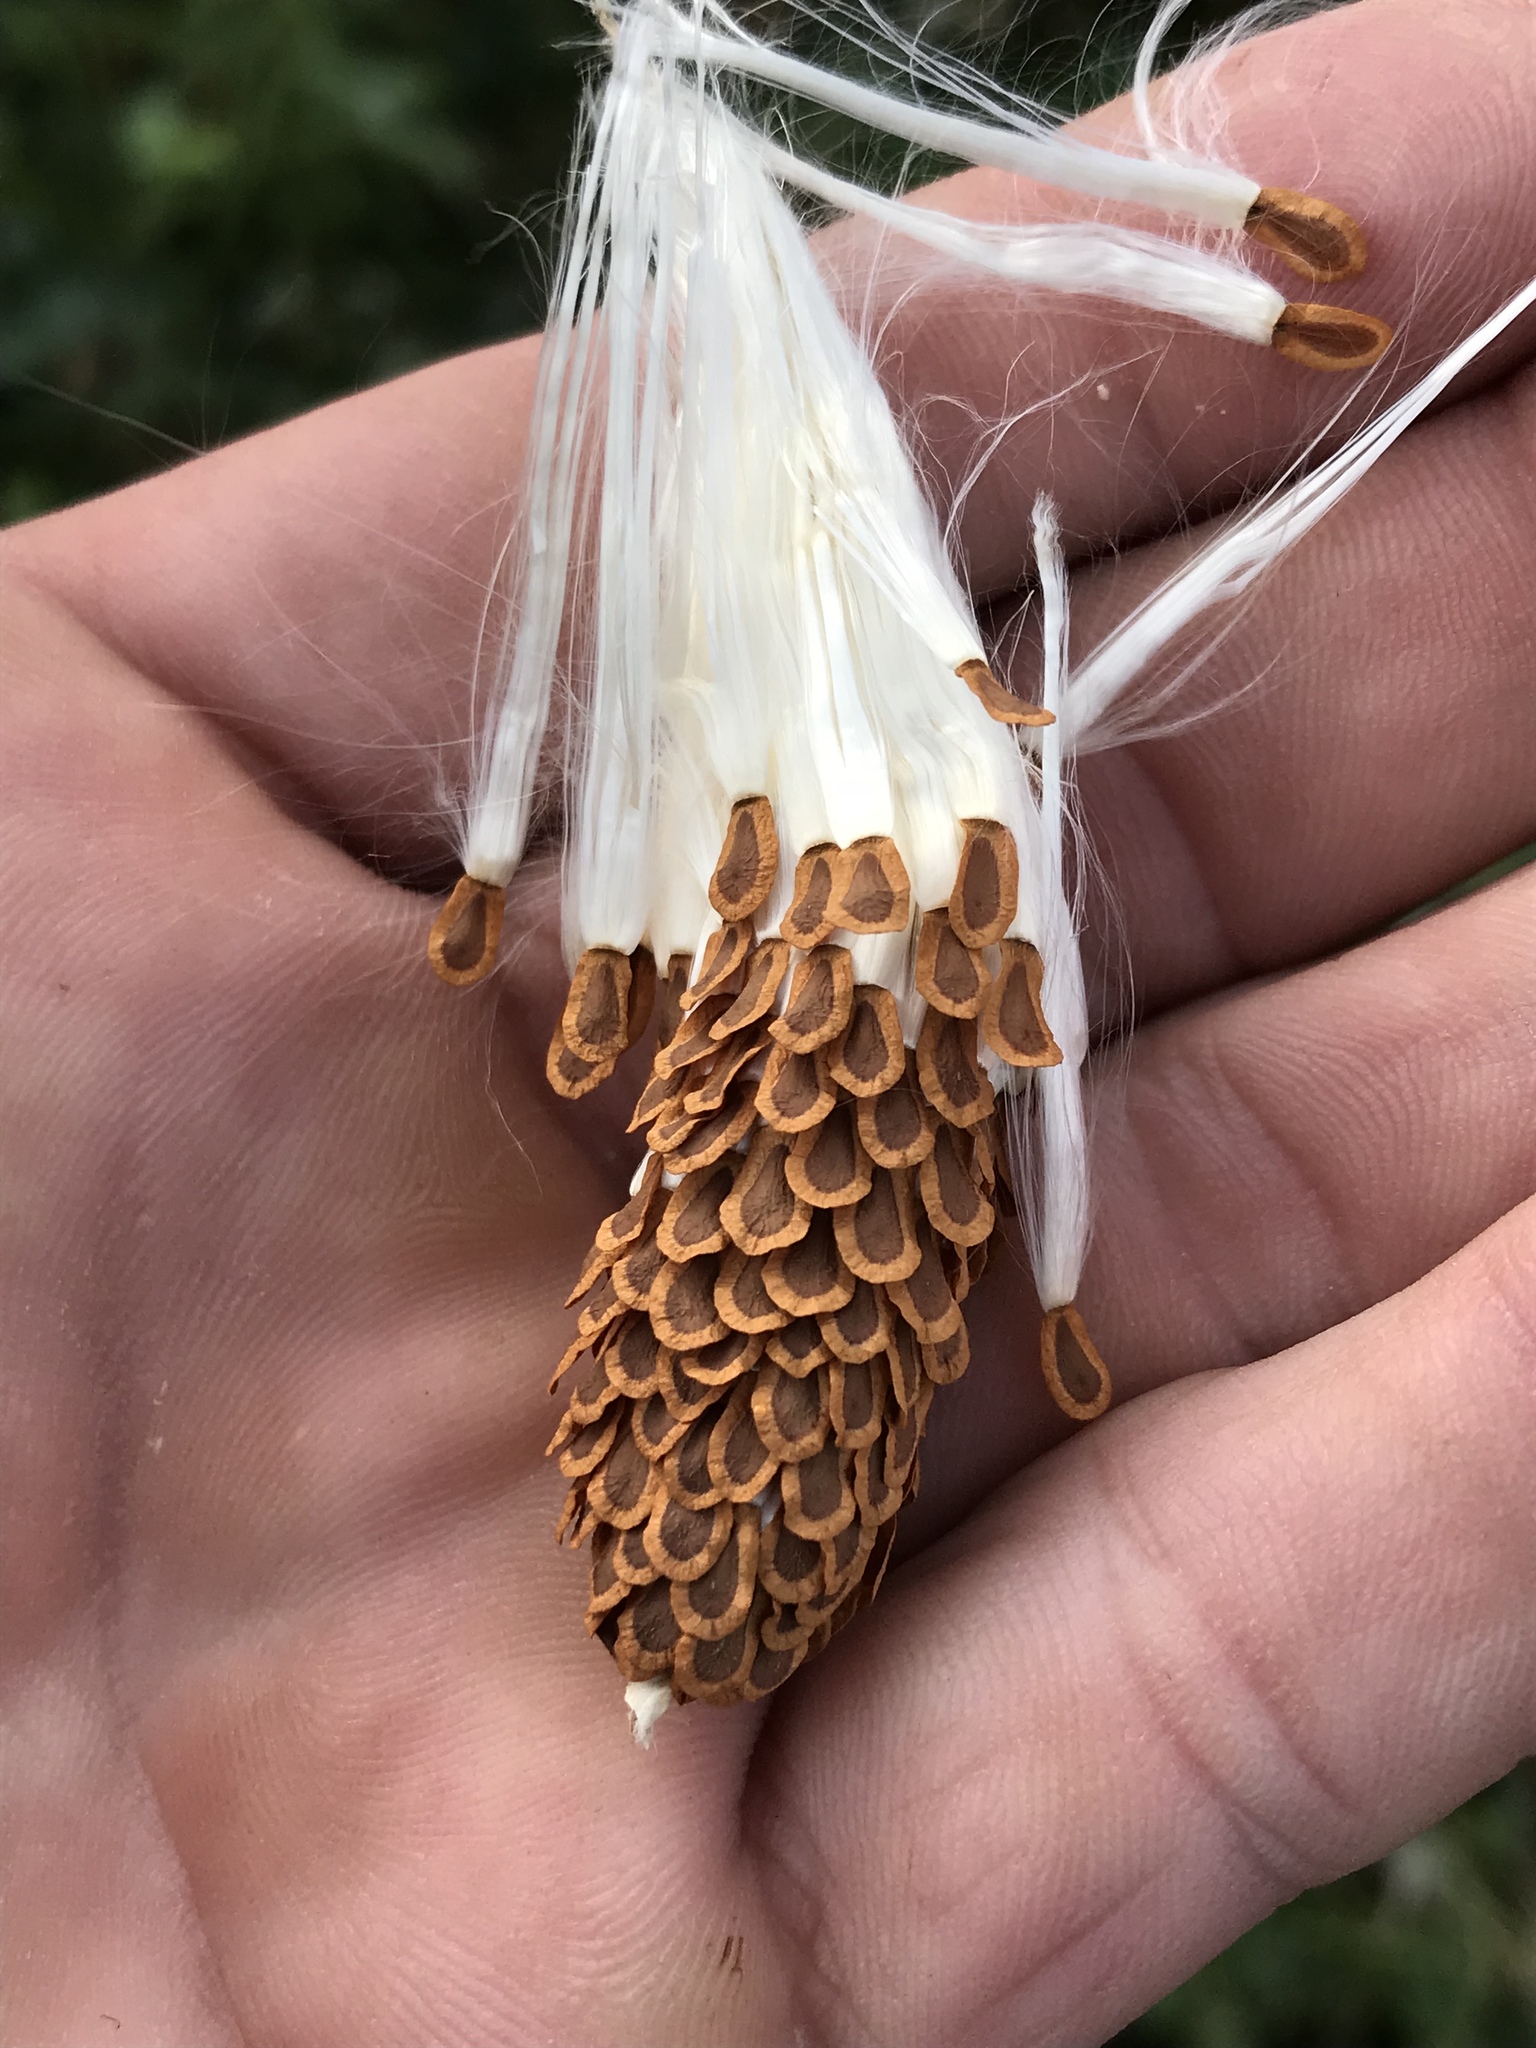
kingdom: Plantae
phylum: Tracheophyta
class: Magnoliopsida
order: Gentianales
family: Apocynaceae
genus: Asclepias
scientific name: Asclepias syriaca
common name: Common milkweed
